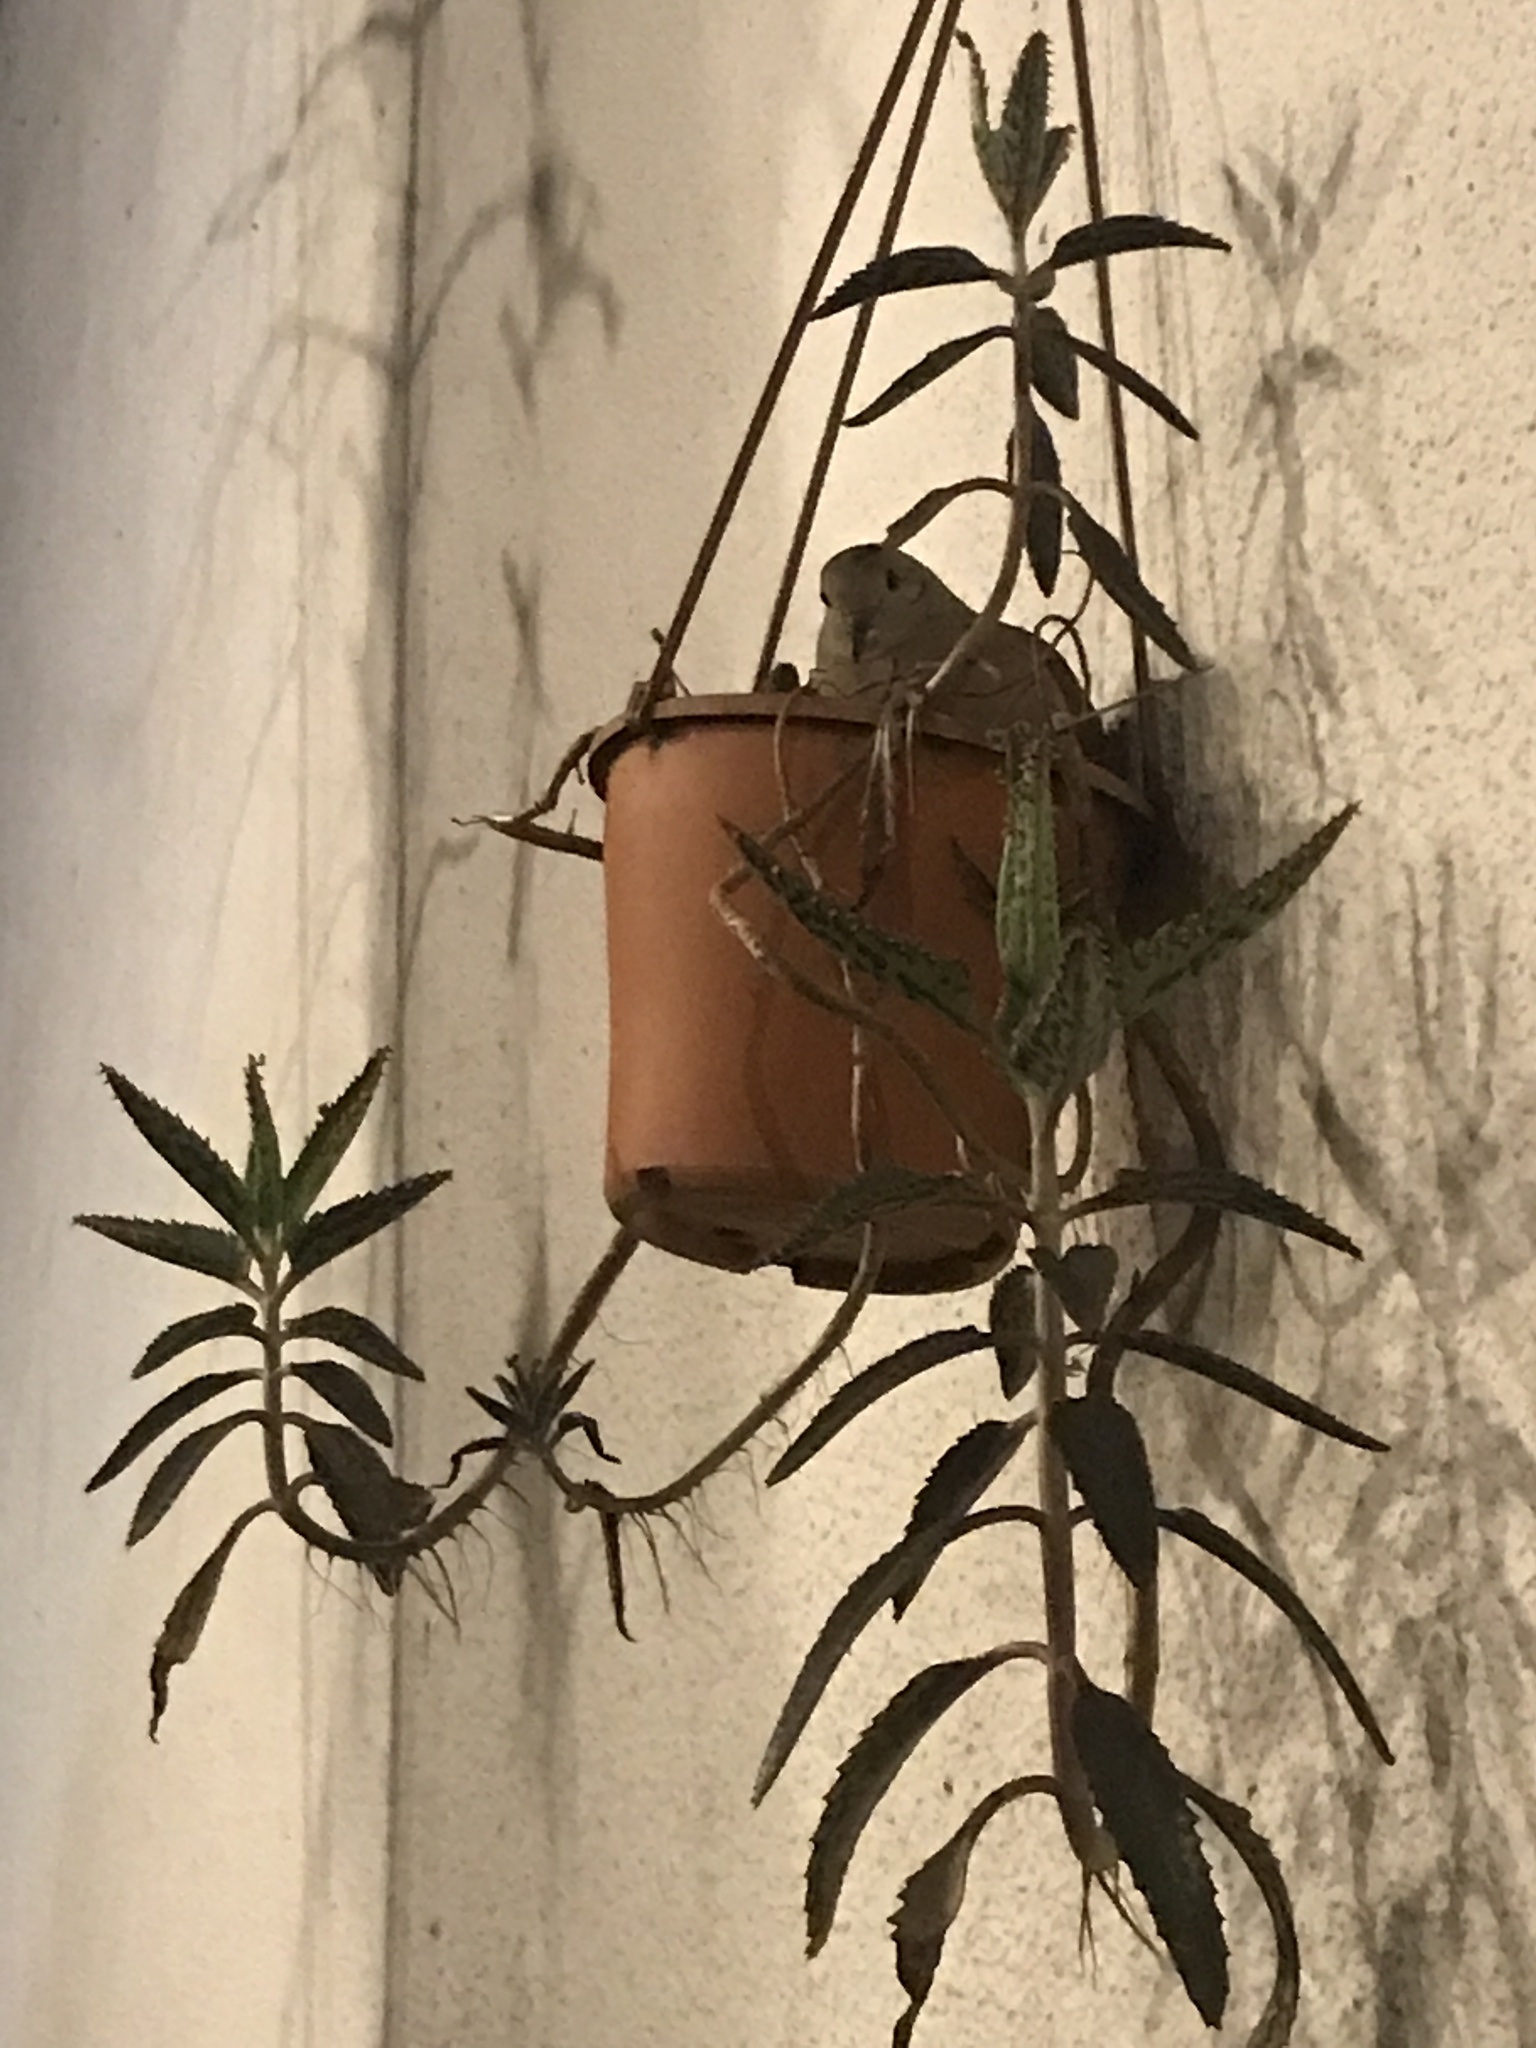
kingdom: Animalia
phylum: Chordata
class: Aves
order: Columbiformes
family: Columbidae
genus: Zenaida
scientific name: Zenaida auriculata
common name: Eared dove
